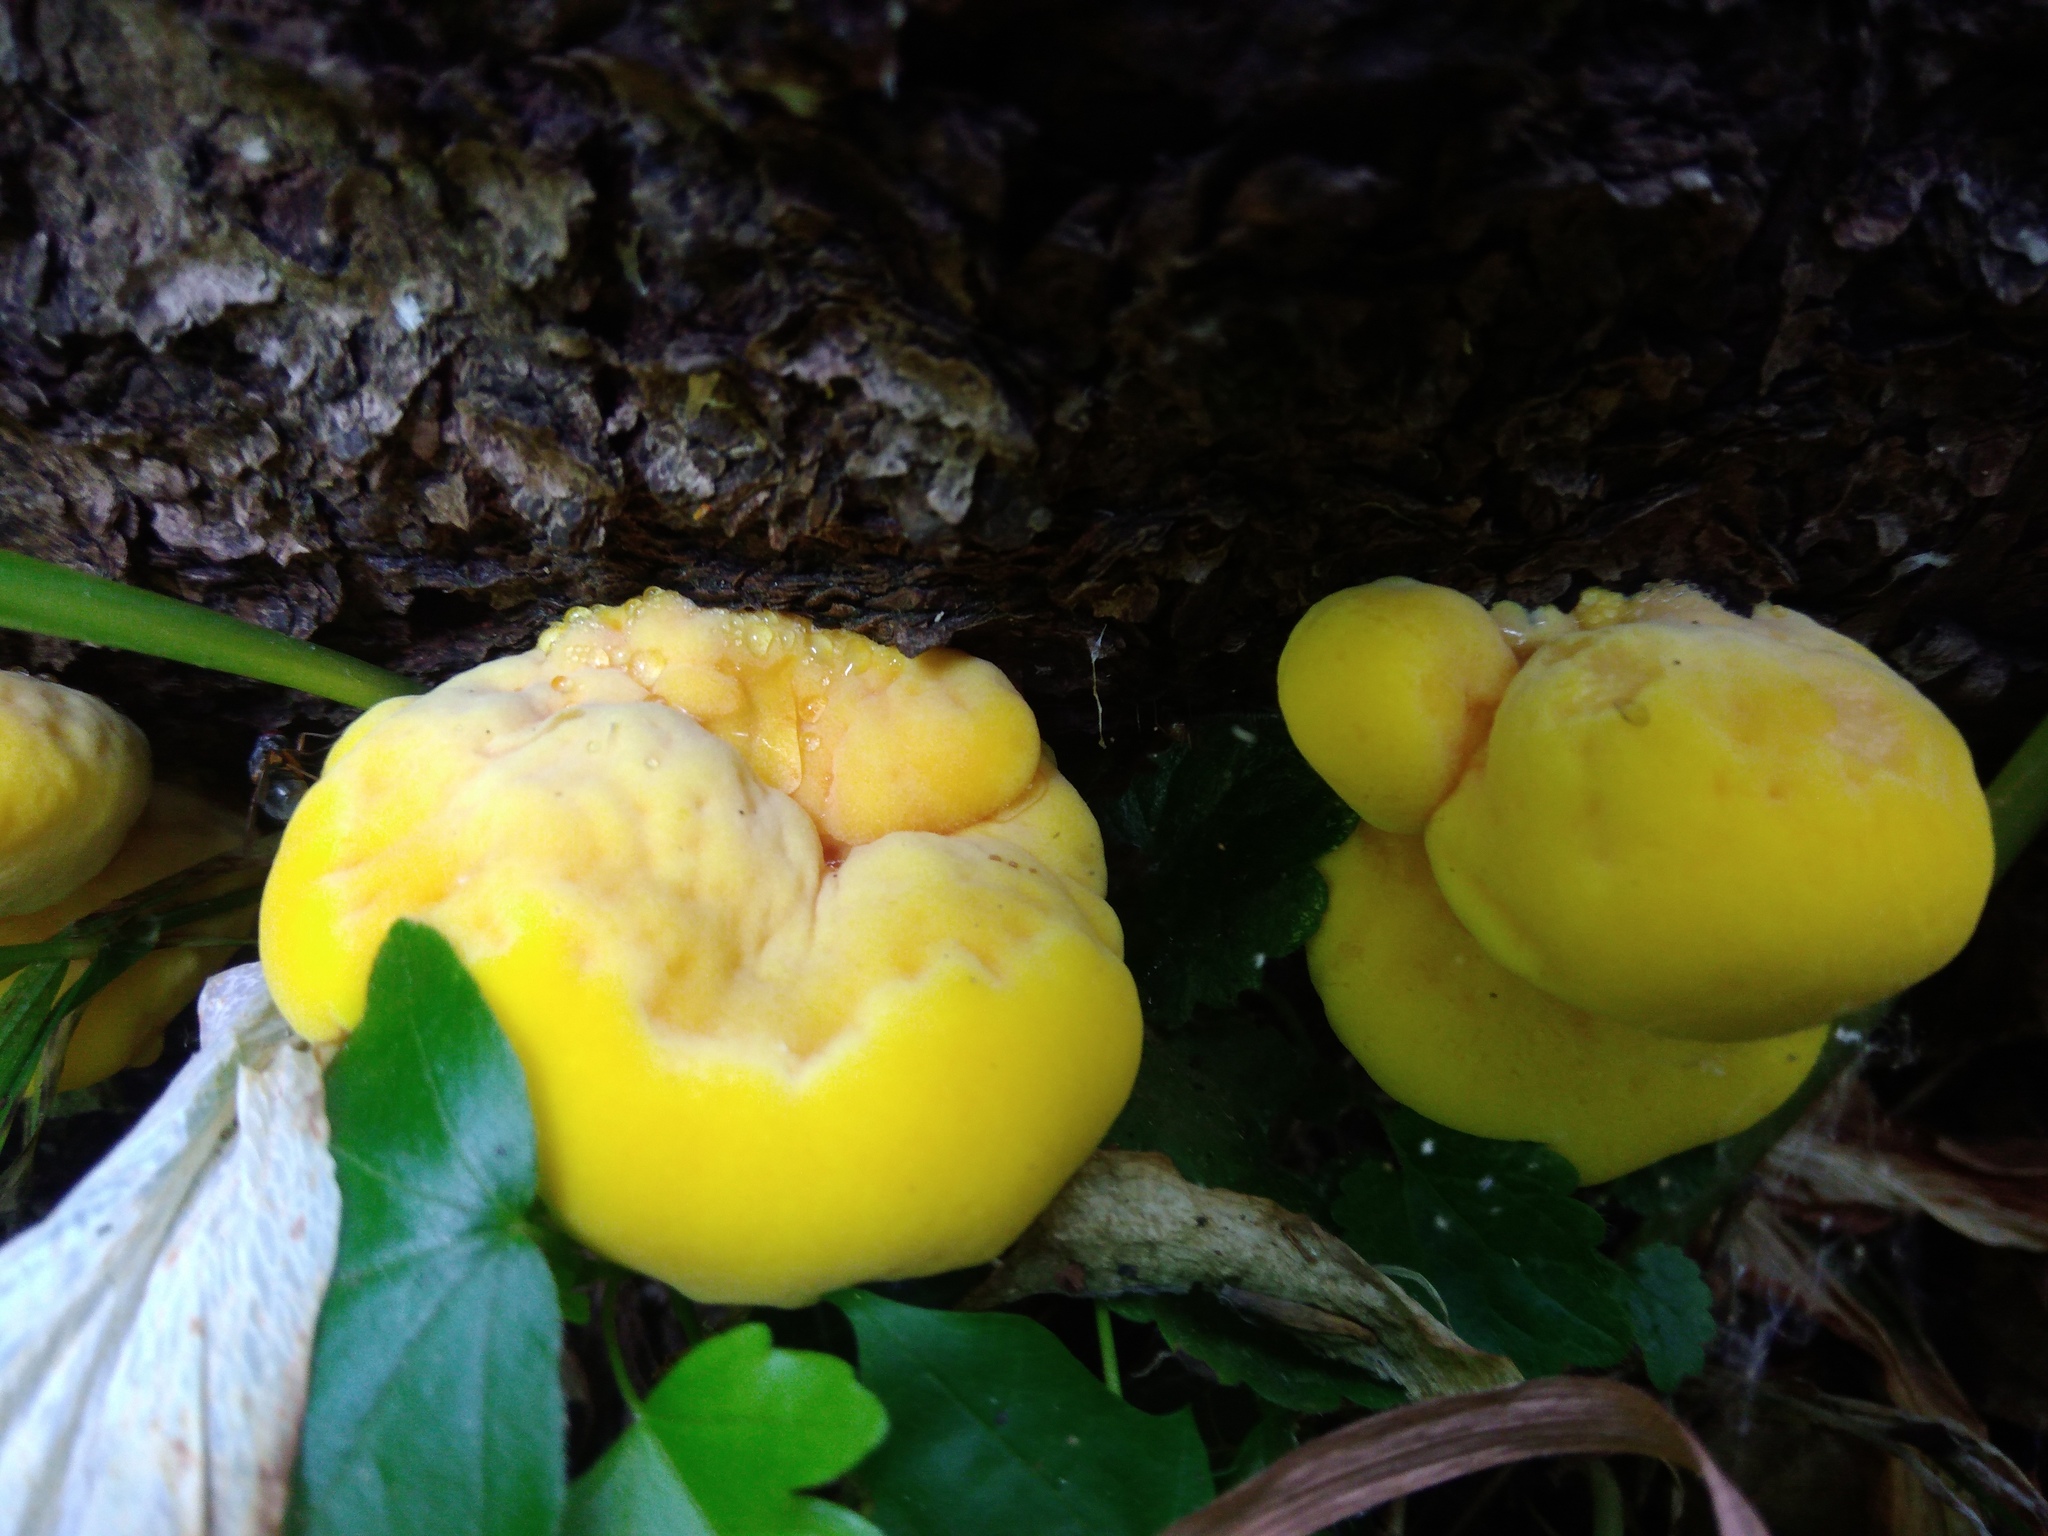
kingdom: Fungi
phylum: Basidiomycota
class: Agaricomycetes
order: Polyporales
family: Laetiporaceae
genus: Laetiporus
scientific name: Laetiporus sulphureus
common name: Chicken of the woods
